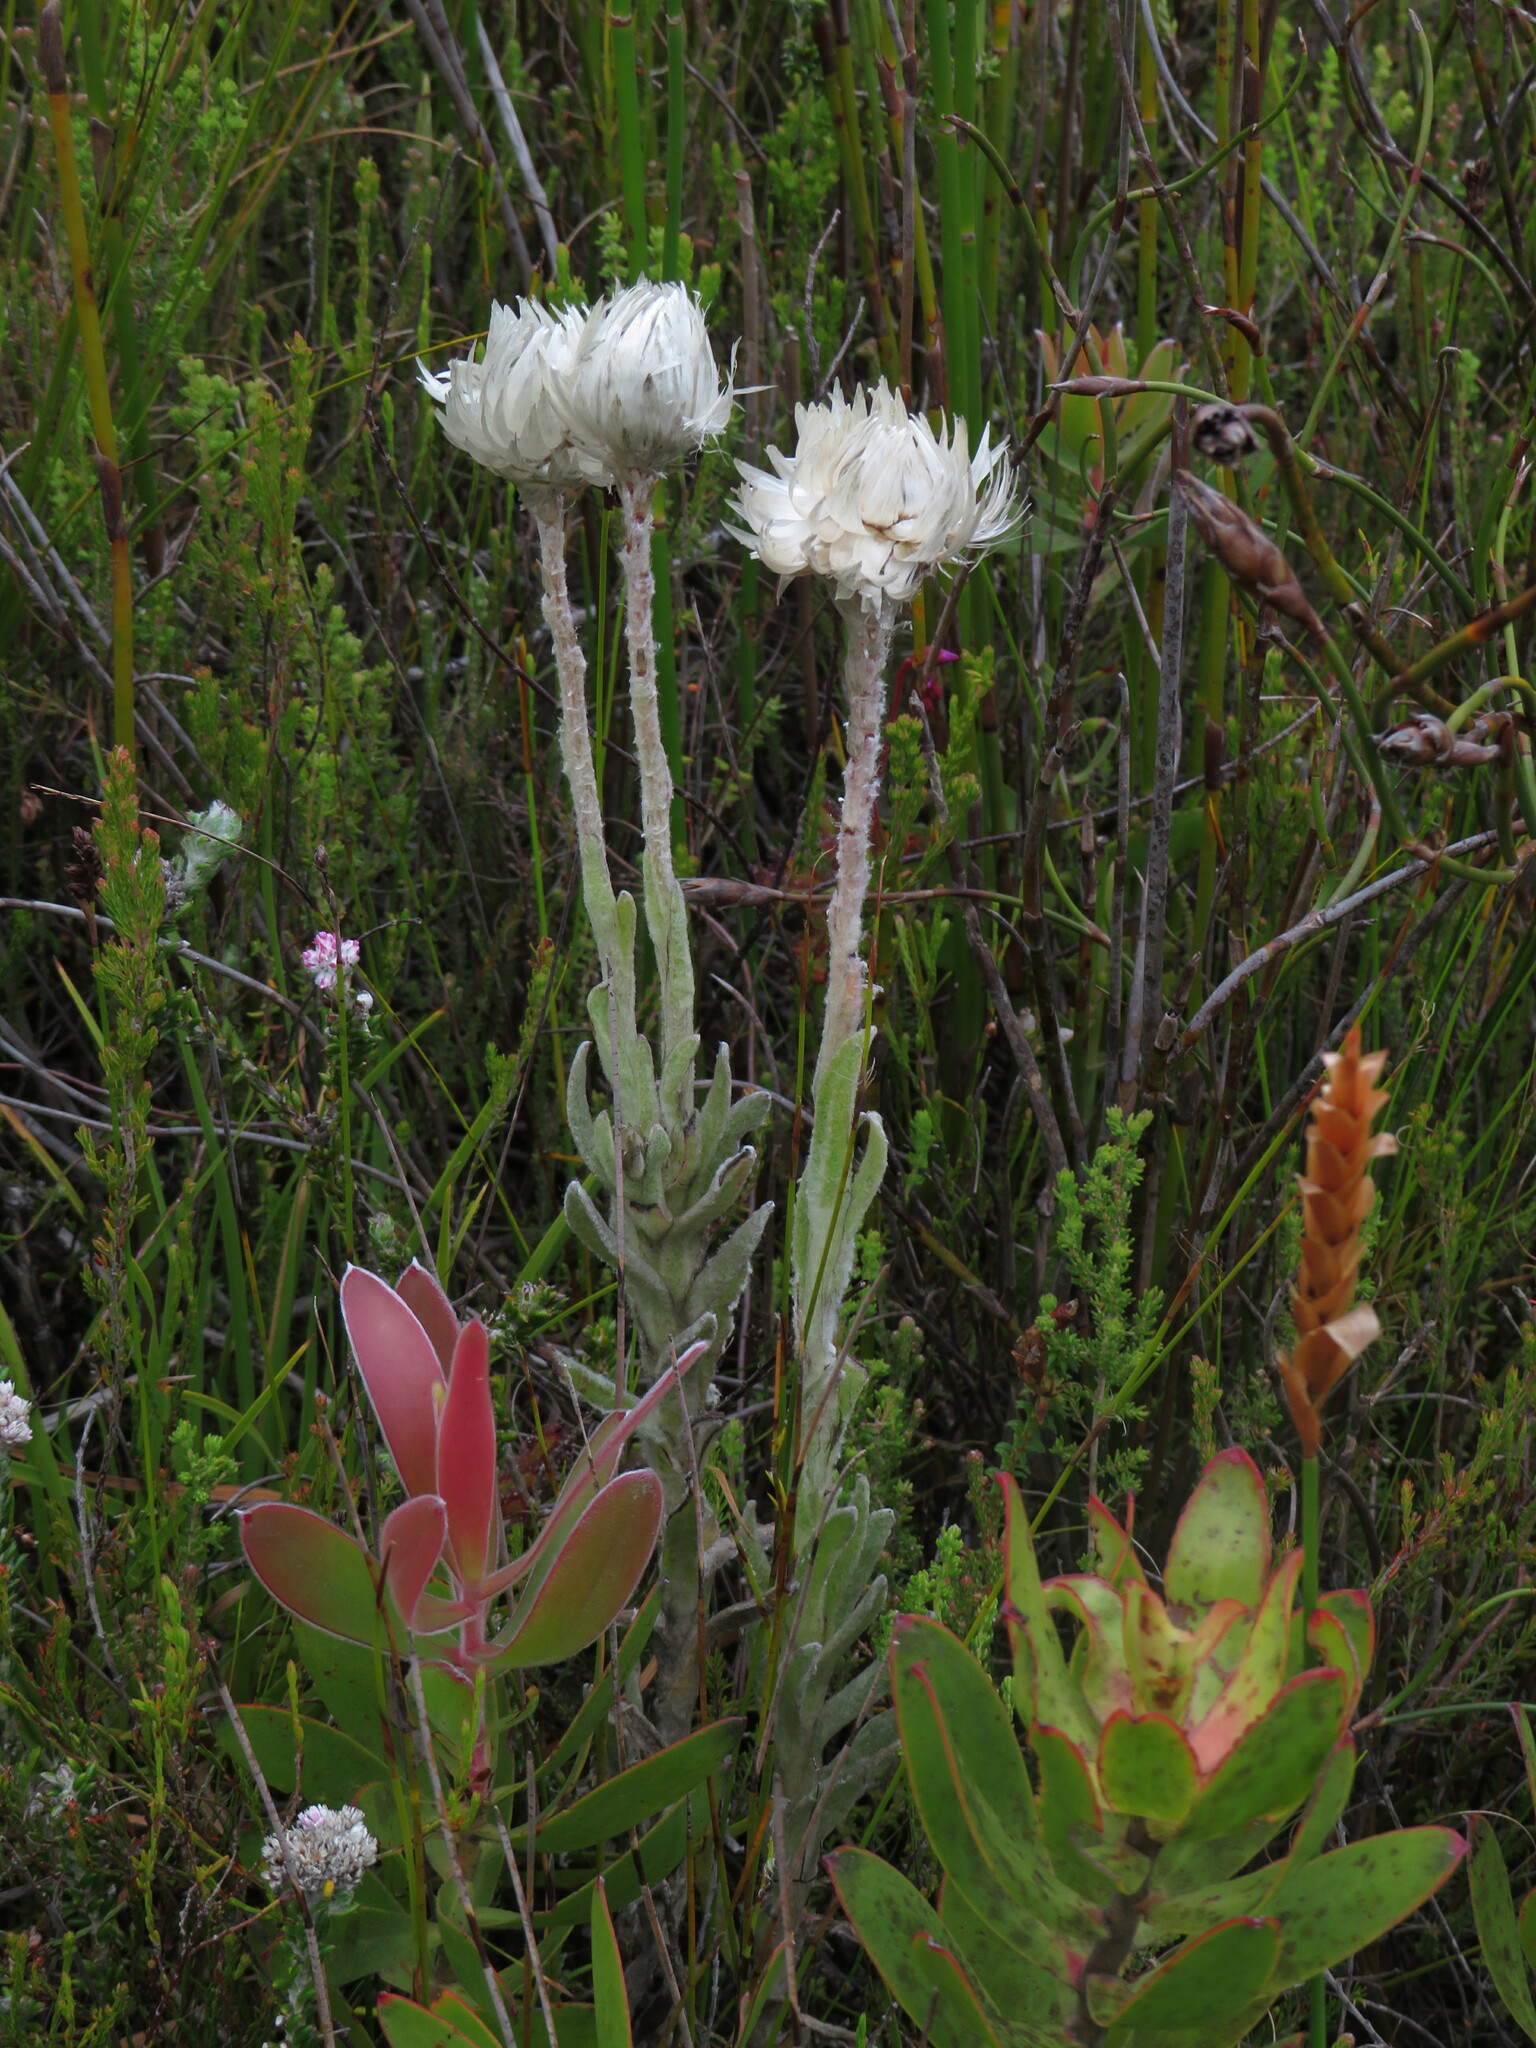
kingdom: Plantae
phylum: Tracheophyta
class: Magnoliopsida
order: Asterales
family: Asteraceae
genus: Syncarpha
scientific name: Syncarpha vestita
